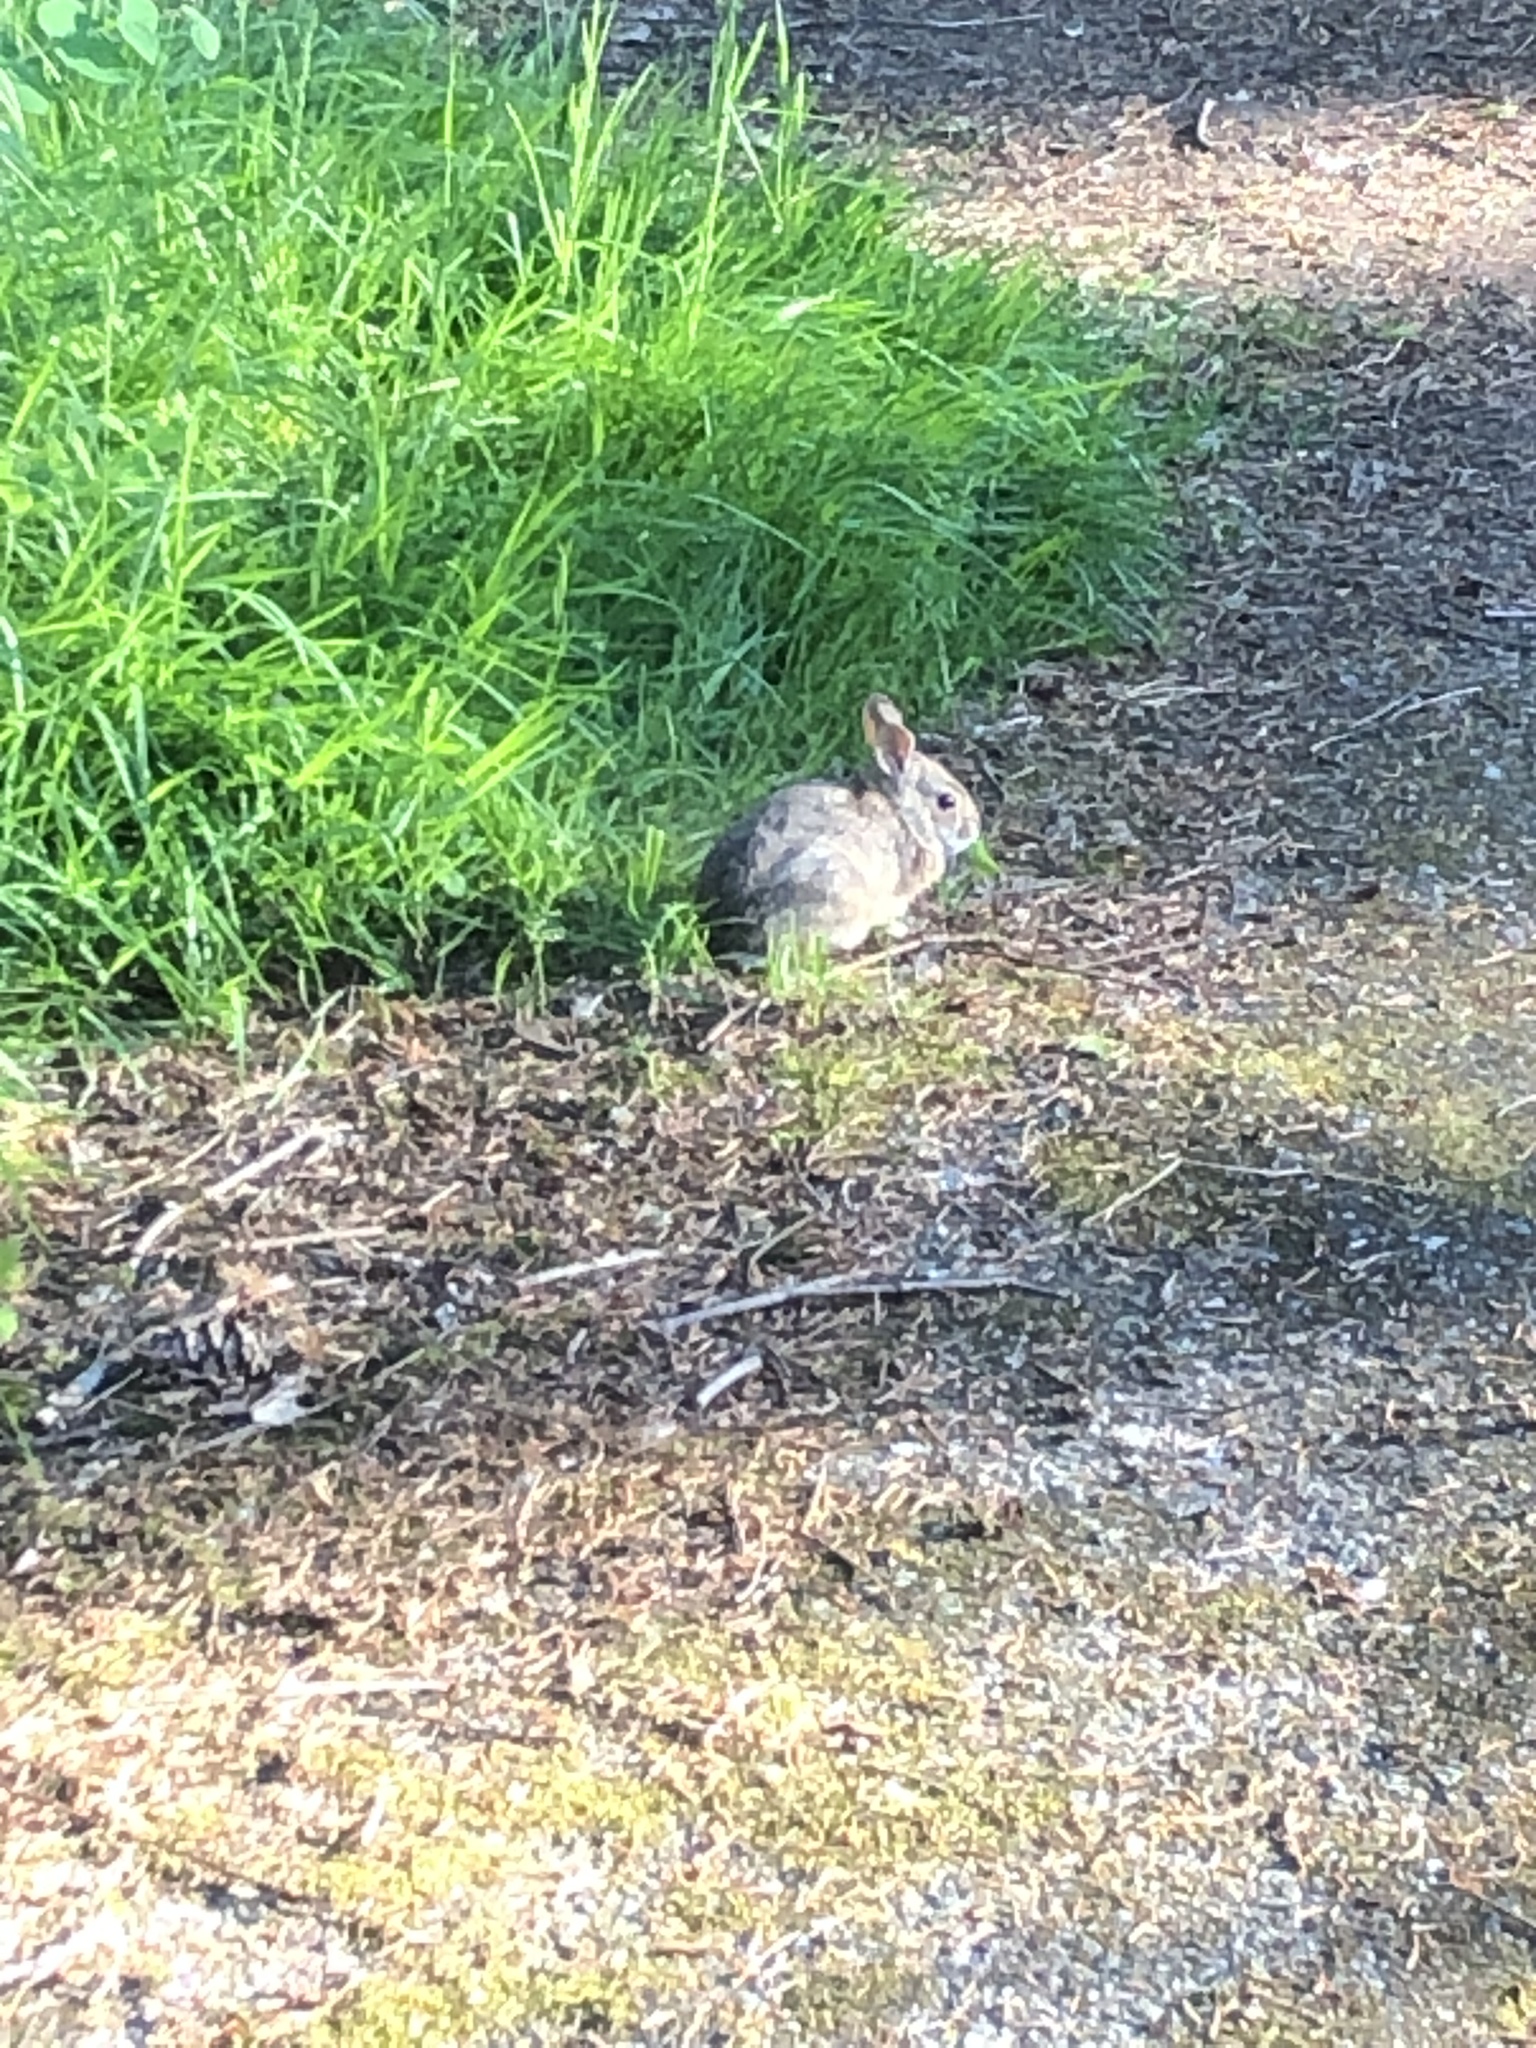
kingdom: Animalia
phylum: Chordata
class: Mammalia
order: Lagomorpha
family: Leporidae
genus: Sylvilagus
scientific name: Sylvilagus floridanus
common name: Eastern cottontail
